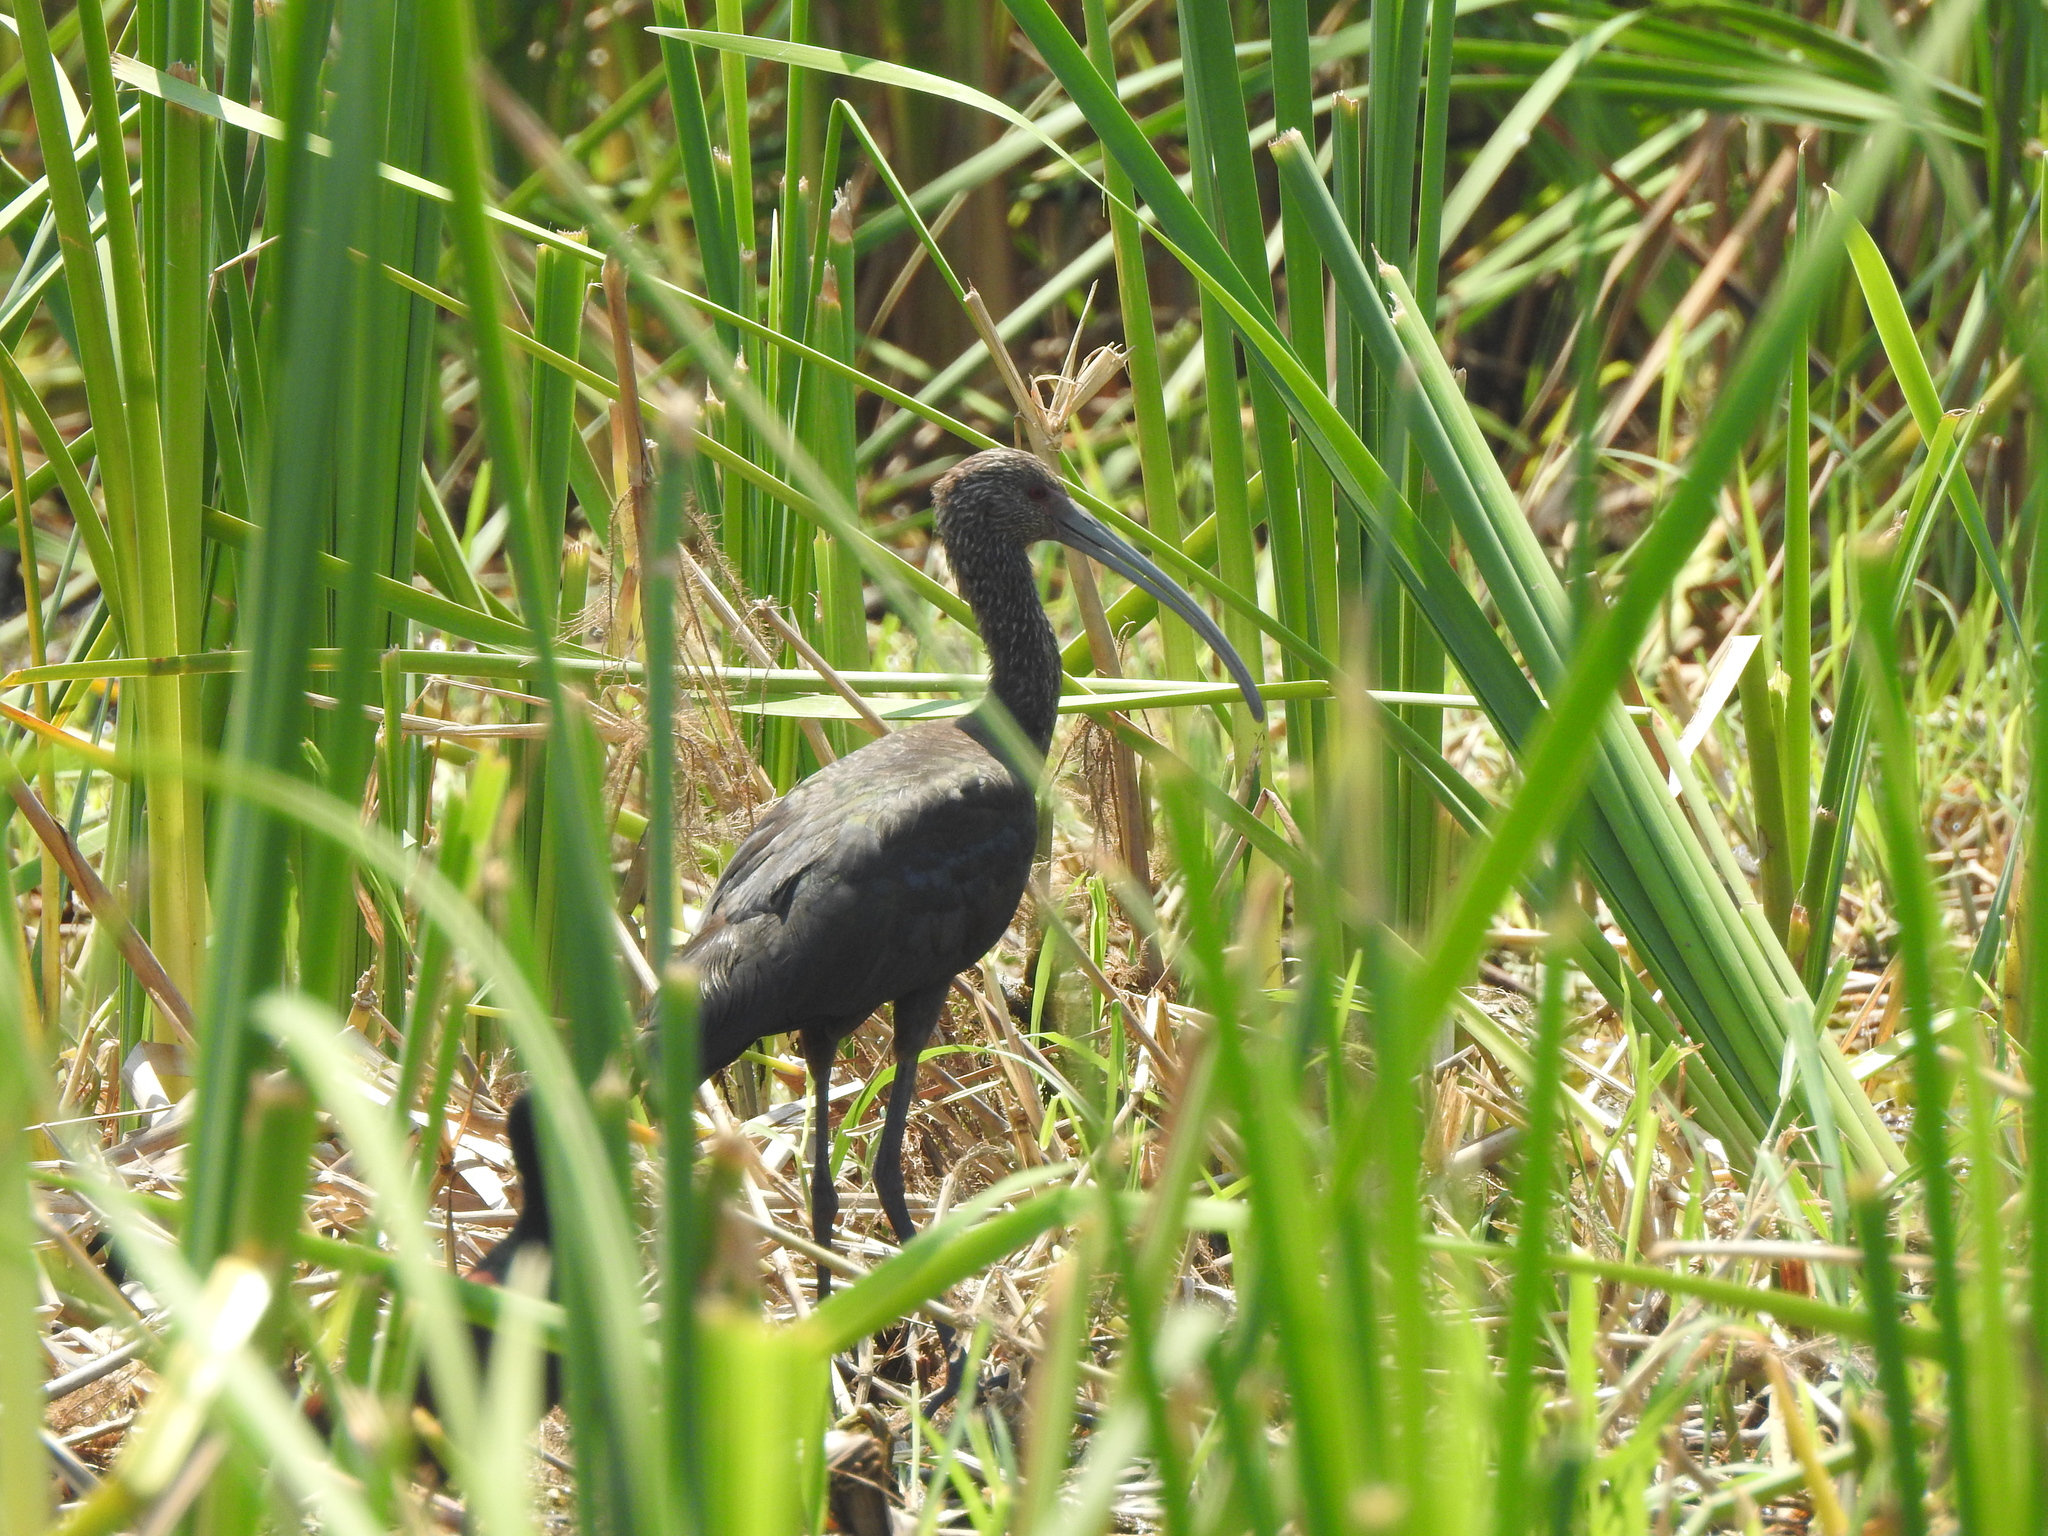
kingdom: Animalia
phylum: Chordata
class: Aves
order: Pelecaniformes
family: Threskiornithidae
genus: Plegadis
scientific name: Plegadis chihi
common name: White-faced ibis
